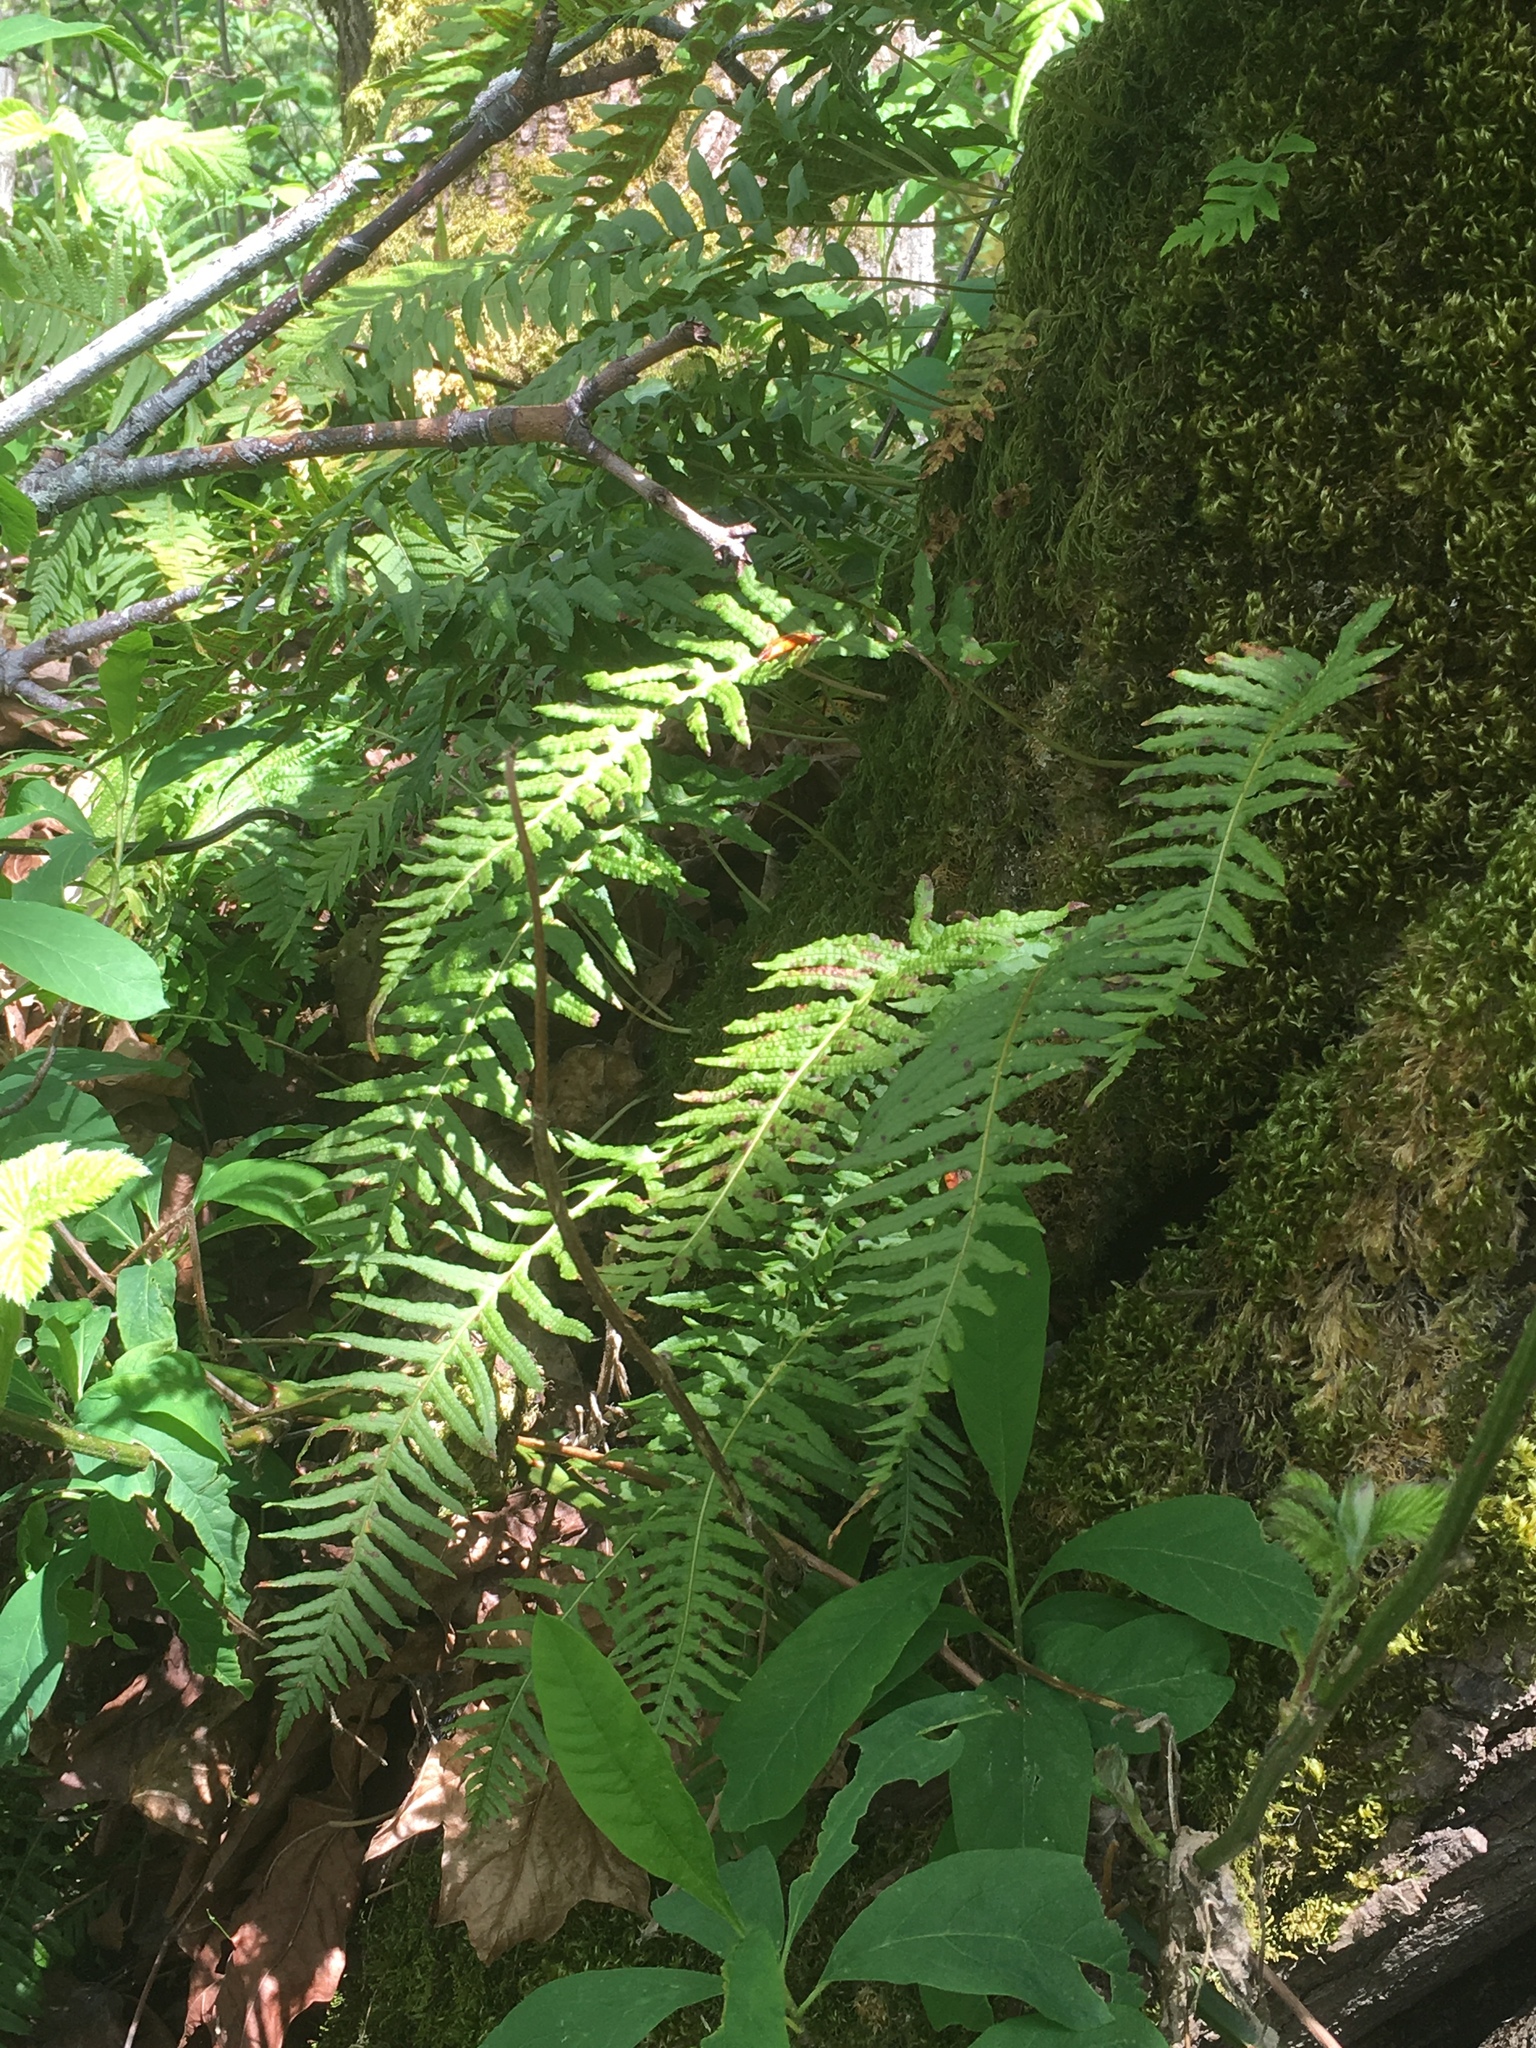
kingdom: Plantae
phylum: Tracheophyta
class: Polypodiopsida
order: Polypodiales
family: Polypodiaceae
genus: Polypodium
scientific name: Polypodium glycyrrhiza
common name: Licorice fern
